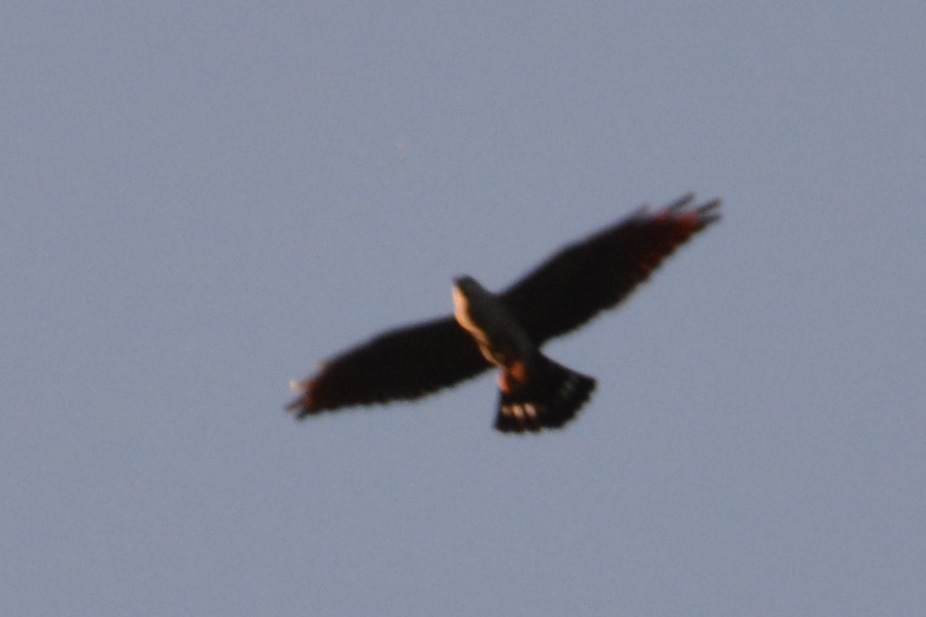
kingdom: Animalia
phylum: Chordata
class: Aves
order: Accipitriformes
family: Accipitridae
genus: Ictinia
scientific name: Ictinia plumbea
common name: Plumbeous kite
